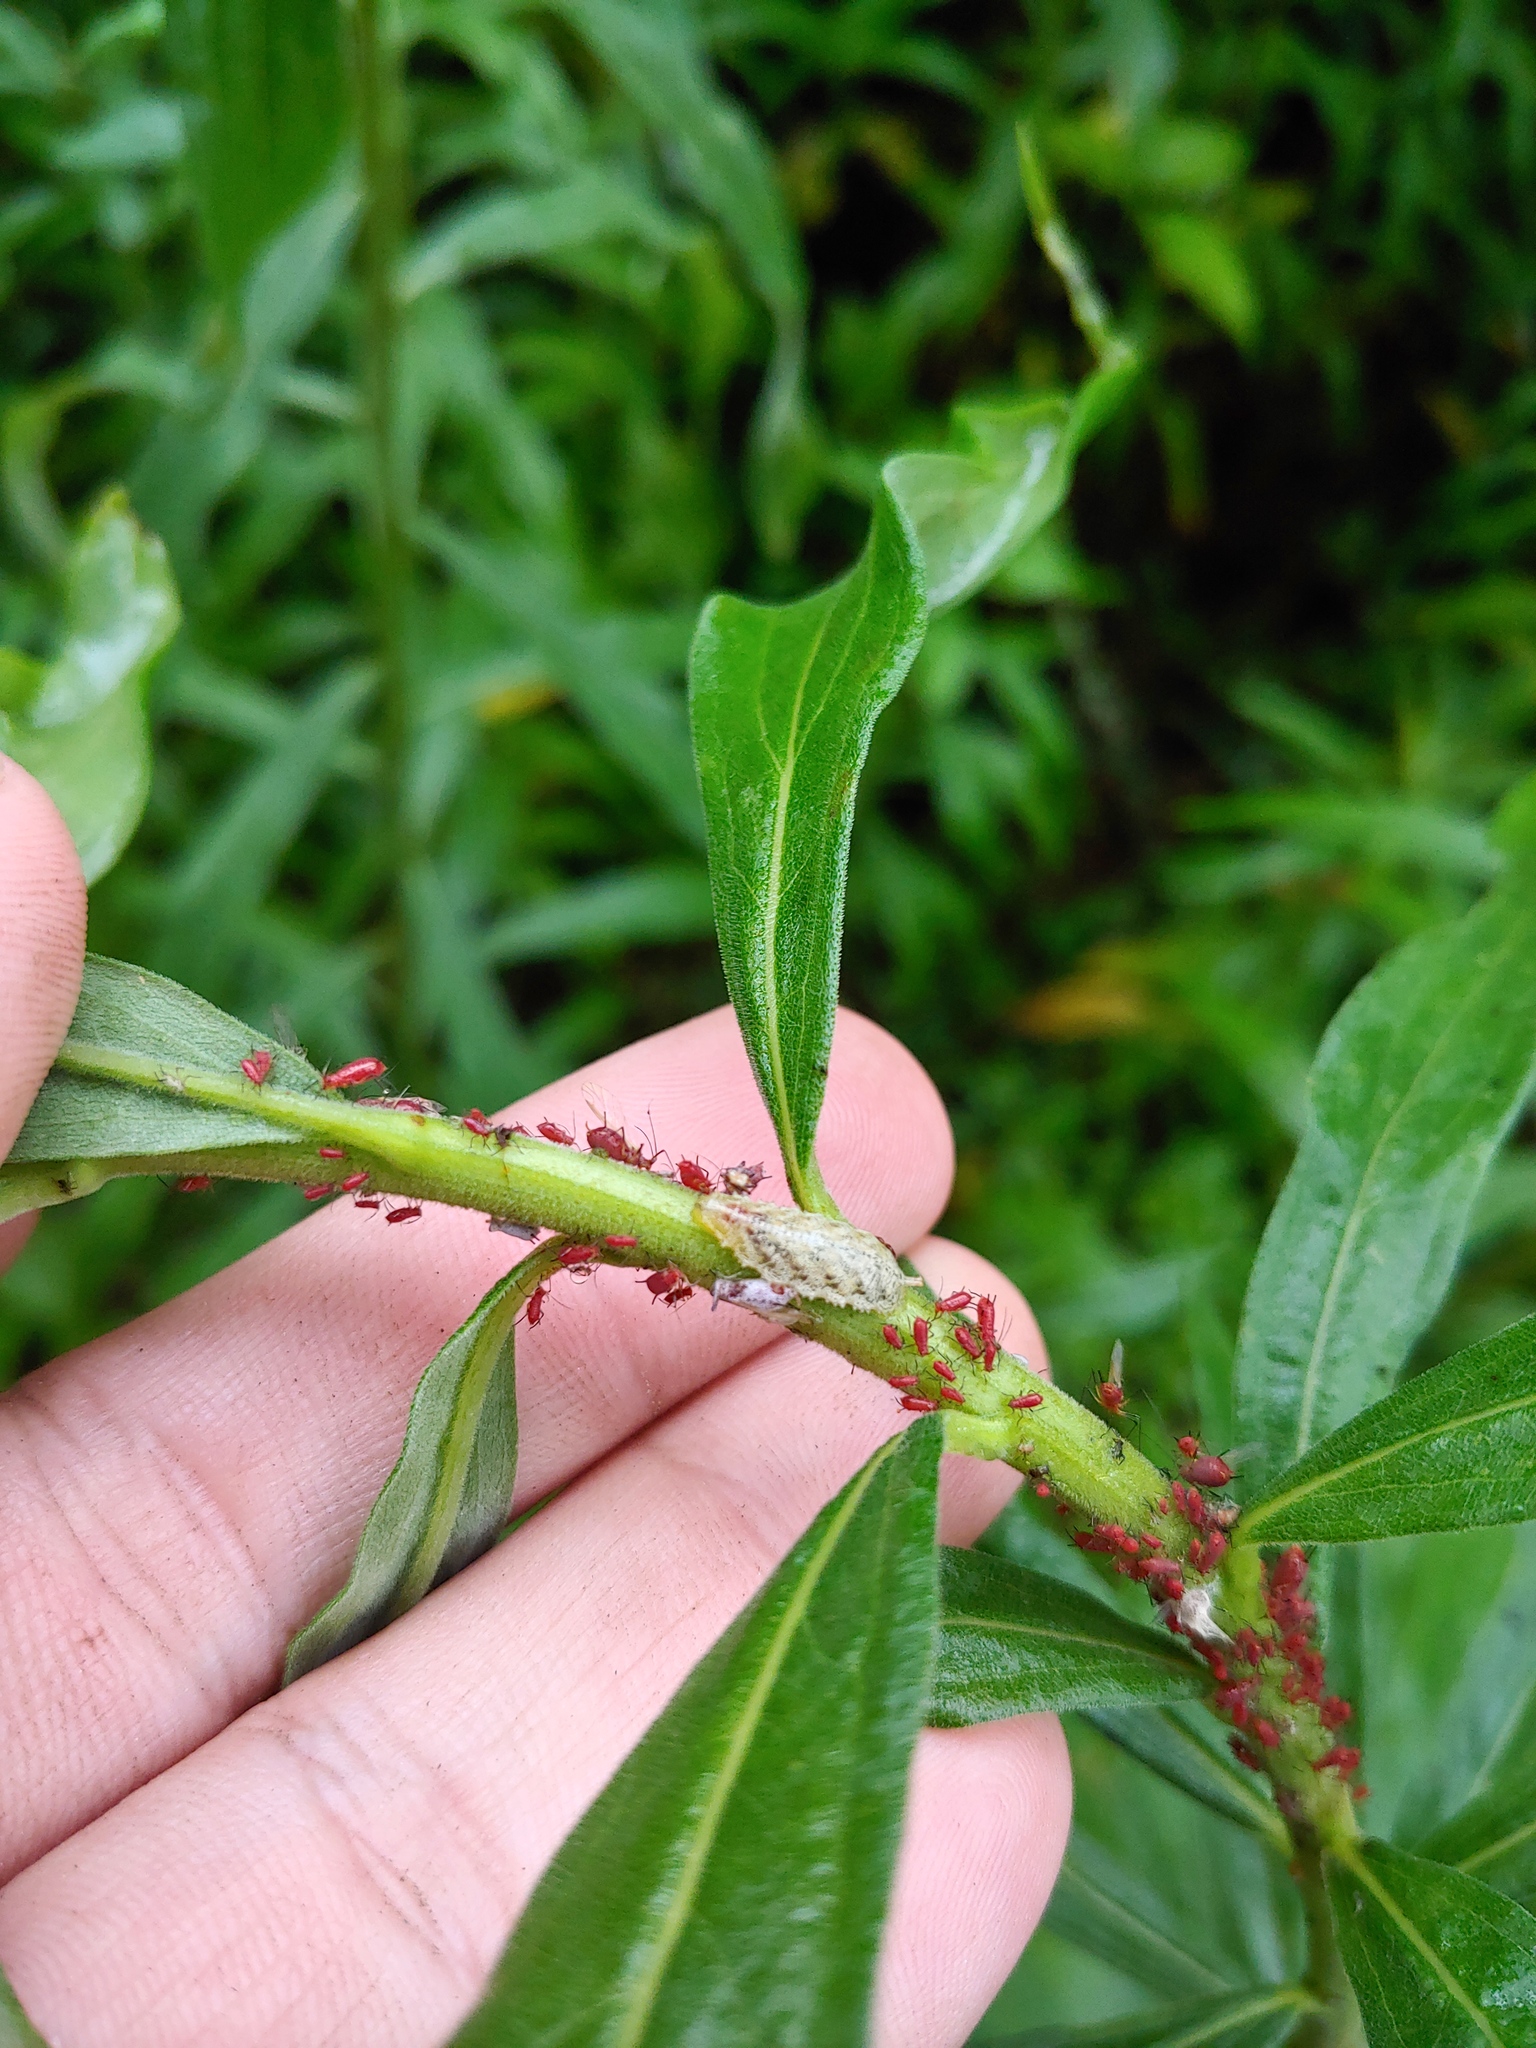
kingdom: Animalia
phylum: Arthropoda
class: Insecta
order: Diptera
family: Syrphidae
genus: Epistrophella
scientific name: Epistrophella emarginata
